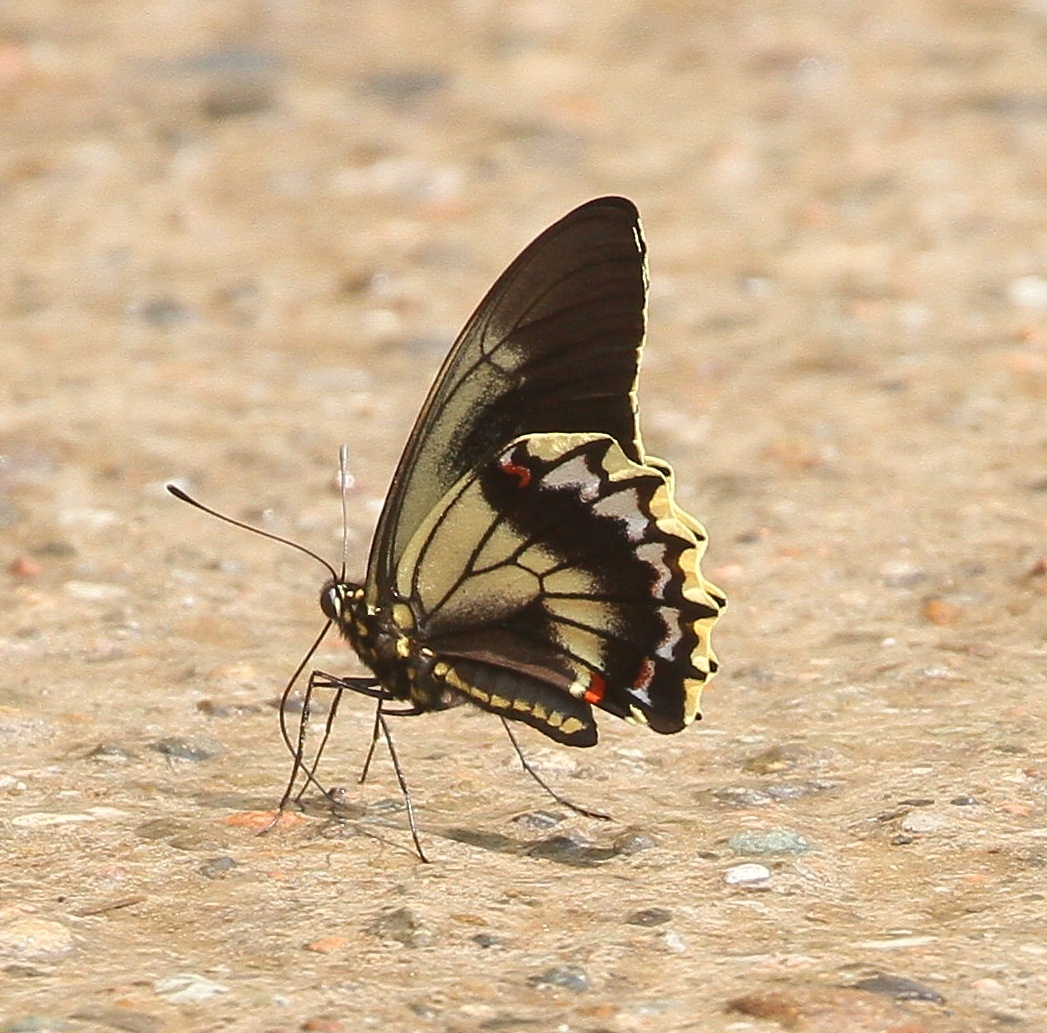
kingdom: Animalia
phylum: Arthropoda
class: Insecta
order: Lepidoptera
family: Papilionidae
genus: Battus
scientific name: Battus polydamas
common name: Polydamas swallowtail
